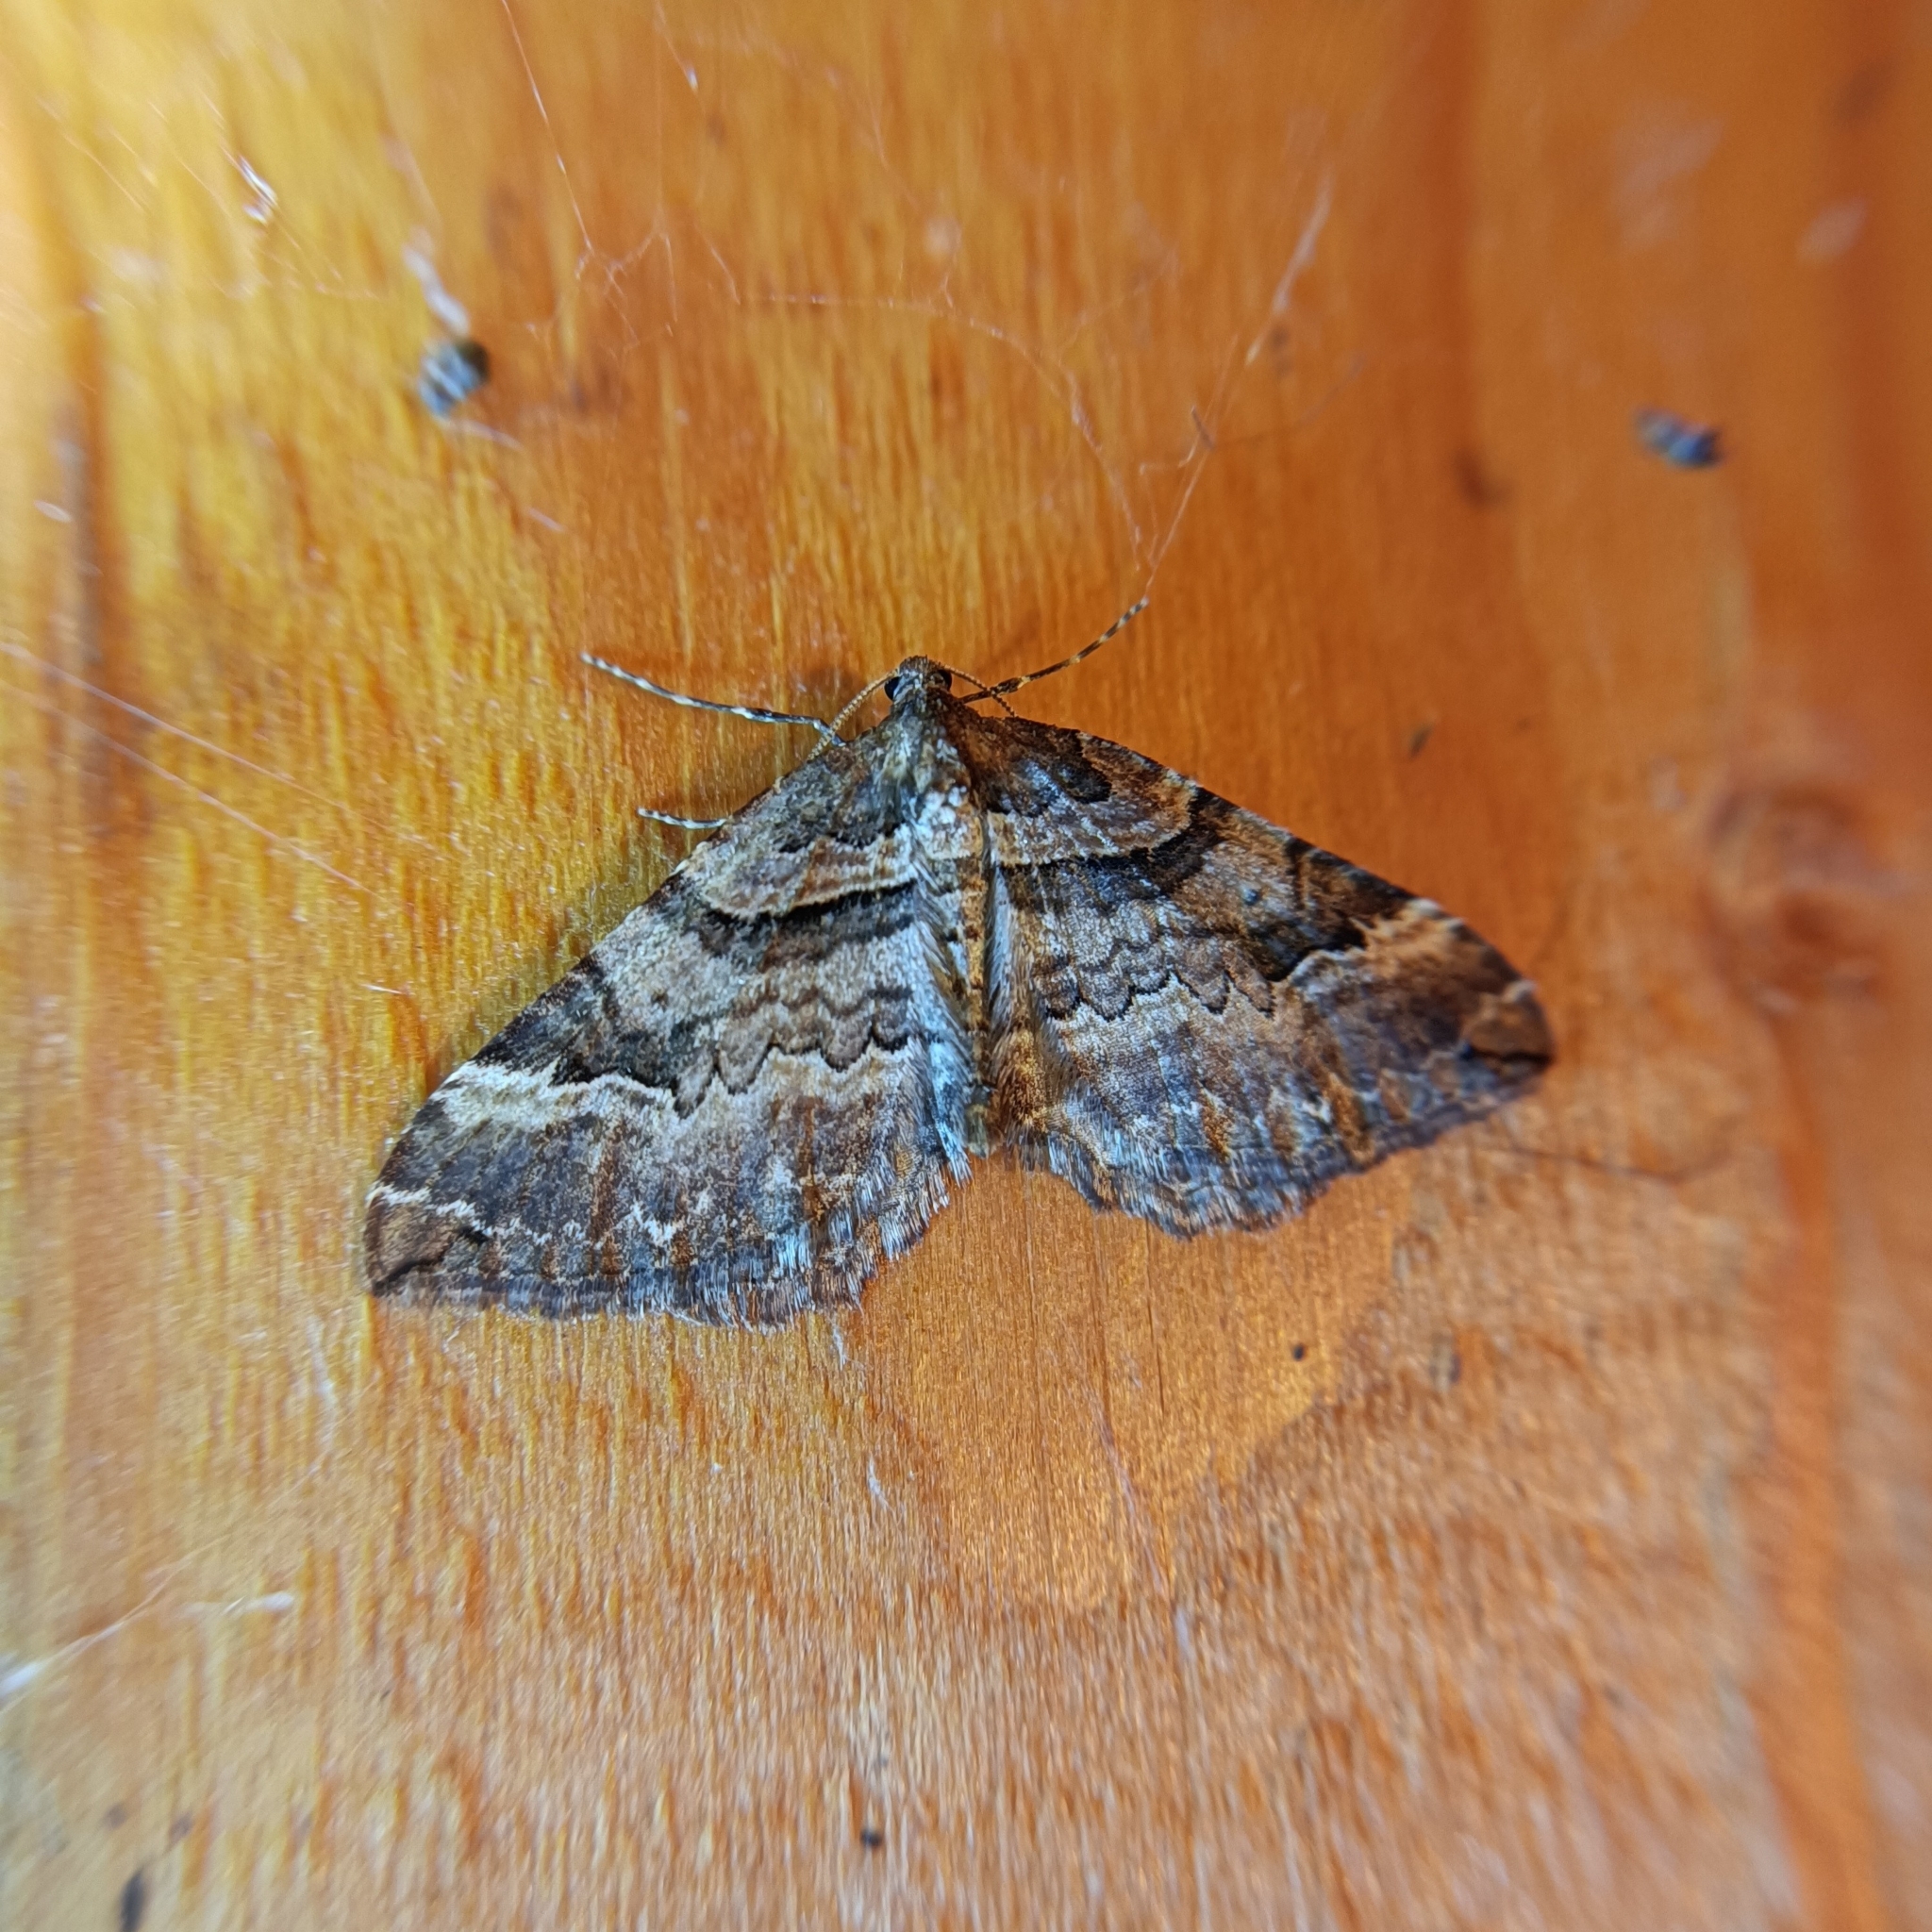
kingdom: Animalia
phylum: Arthropoda
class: Insecta
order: Lepidoptera
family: Geometridae
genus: Anticlea
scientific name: Anticlea badiata
